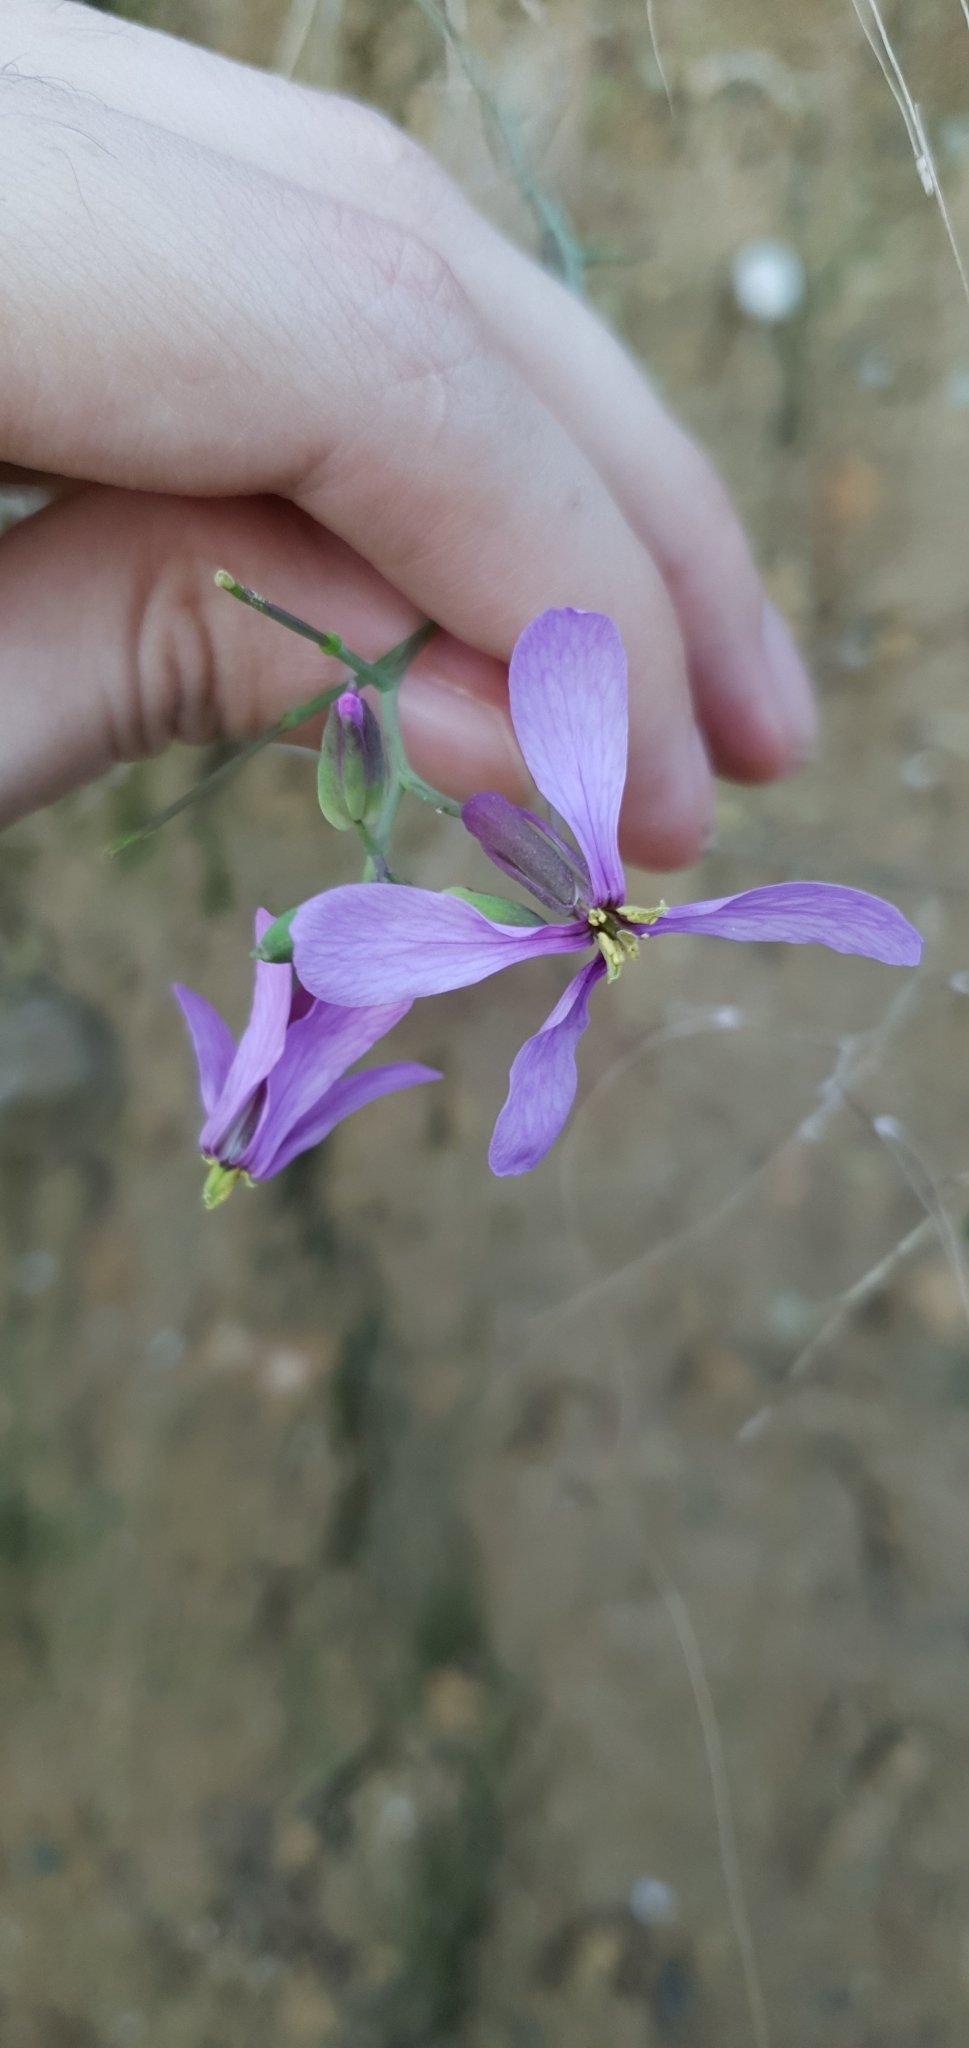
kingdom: Plantae
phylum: Tracheophyta
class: Magnoliopsida
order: Brassicales
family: Brassicaceae
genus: Moricandia
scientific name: Moricandia suffruticosa
